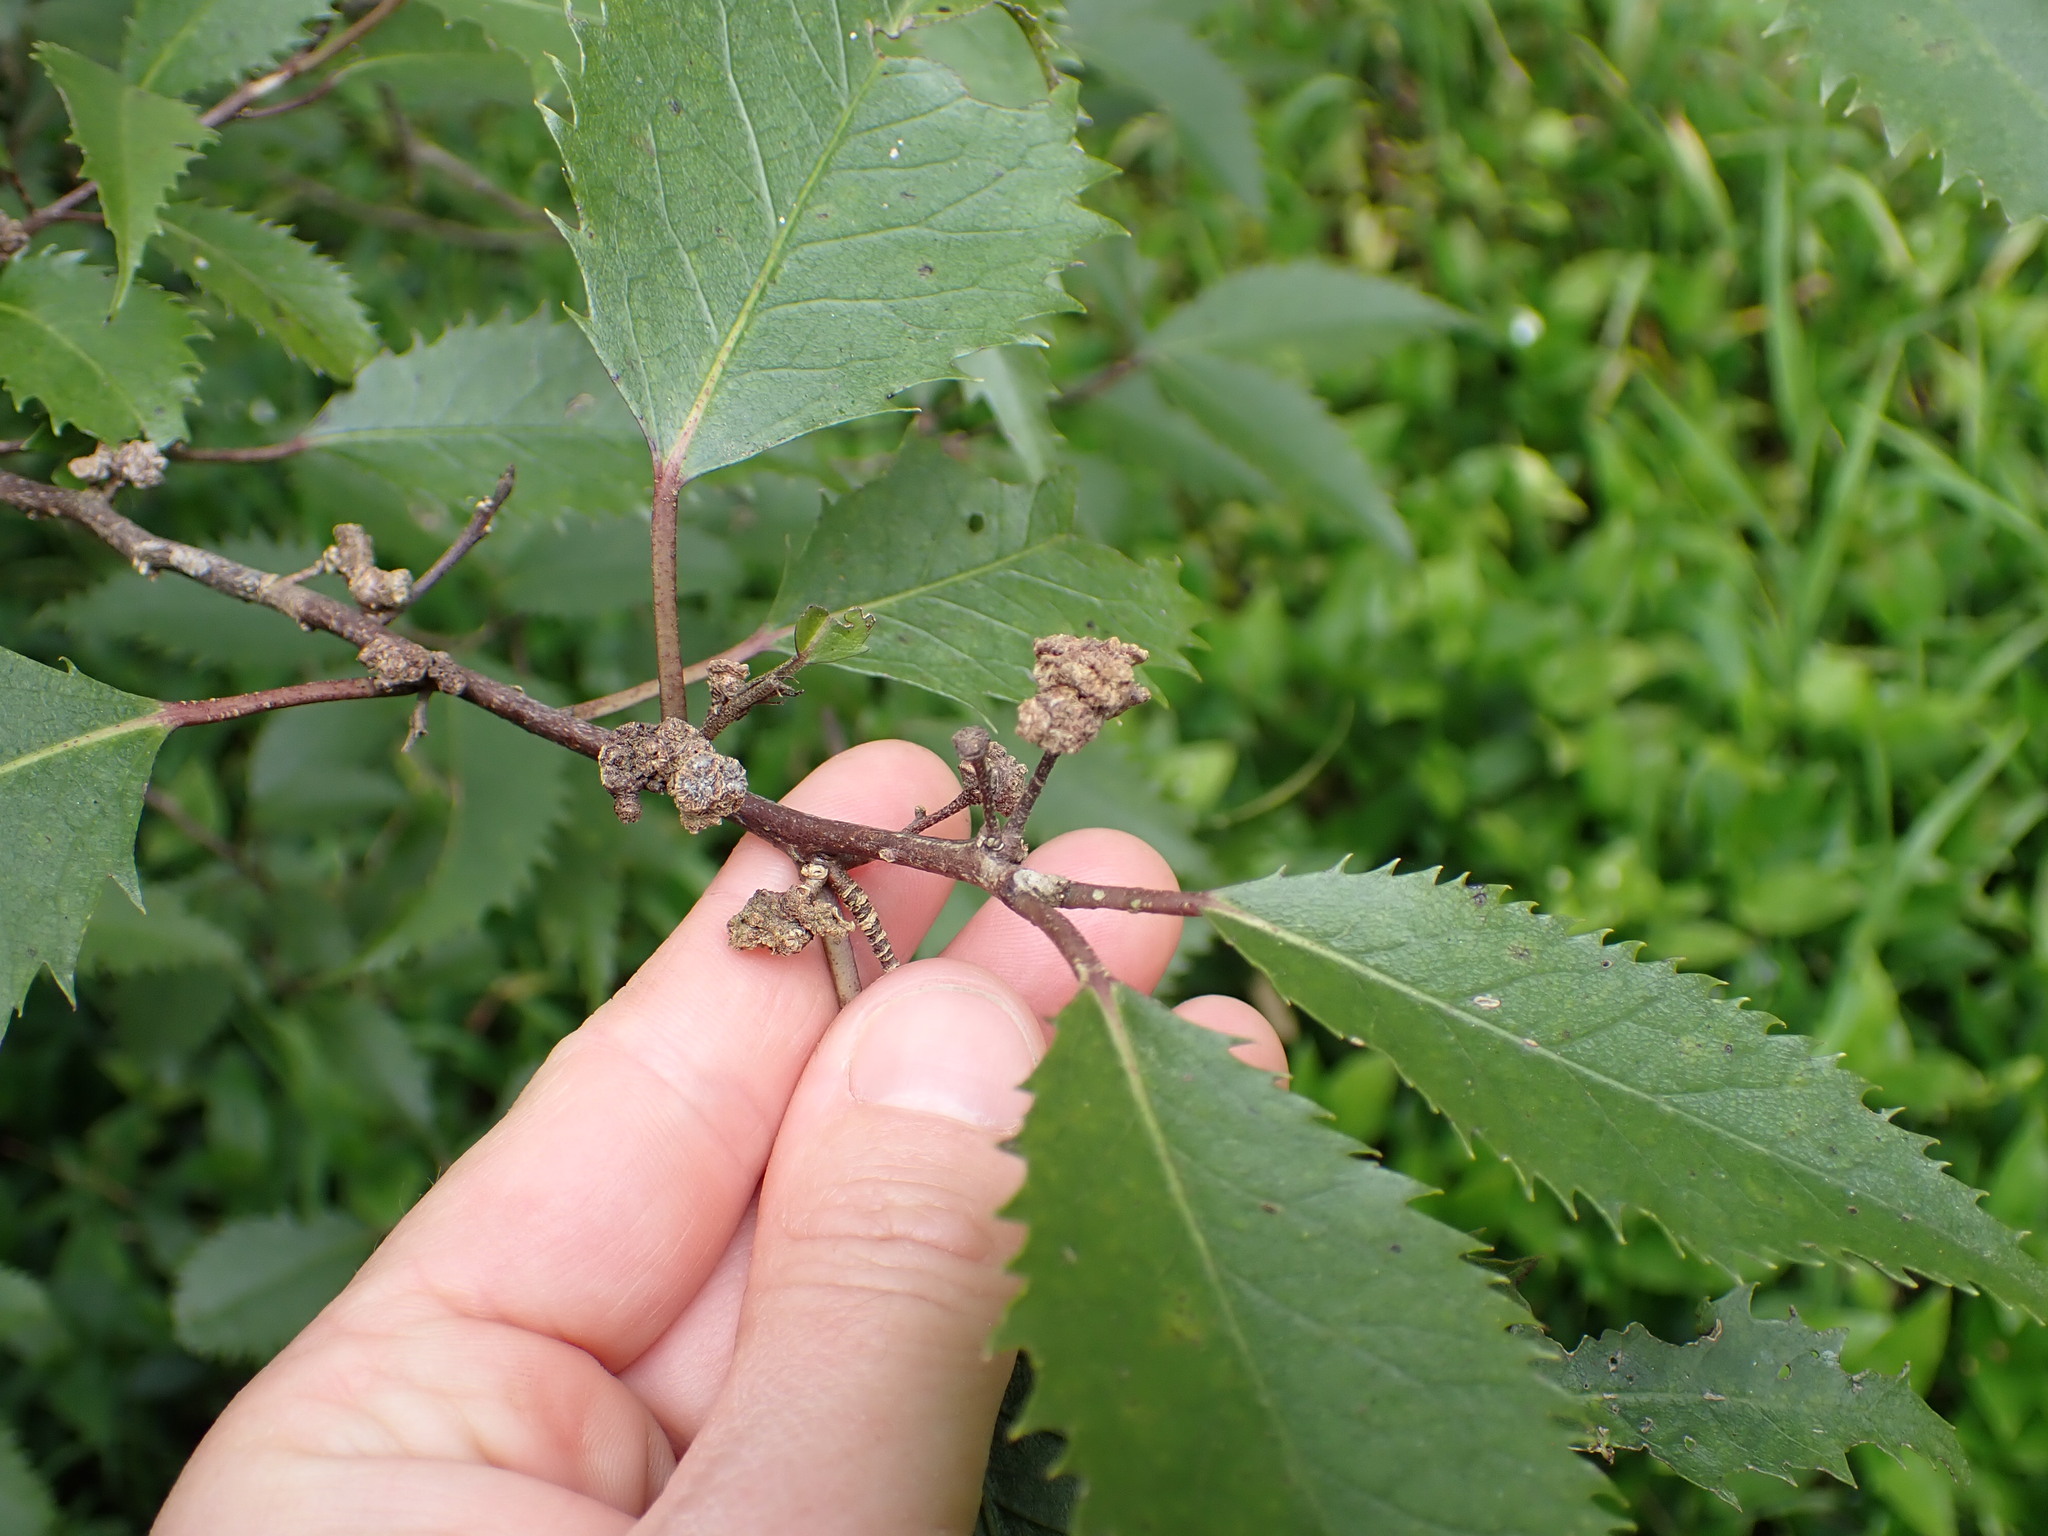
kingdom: Animalia
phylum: Arthropoda
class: Arachnida
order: Trombidiformes
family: Eriophyidae
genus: Eriophyes
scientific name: Eriophyes hoheriae
